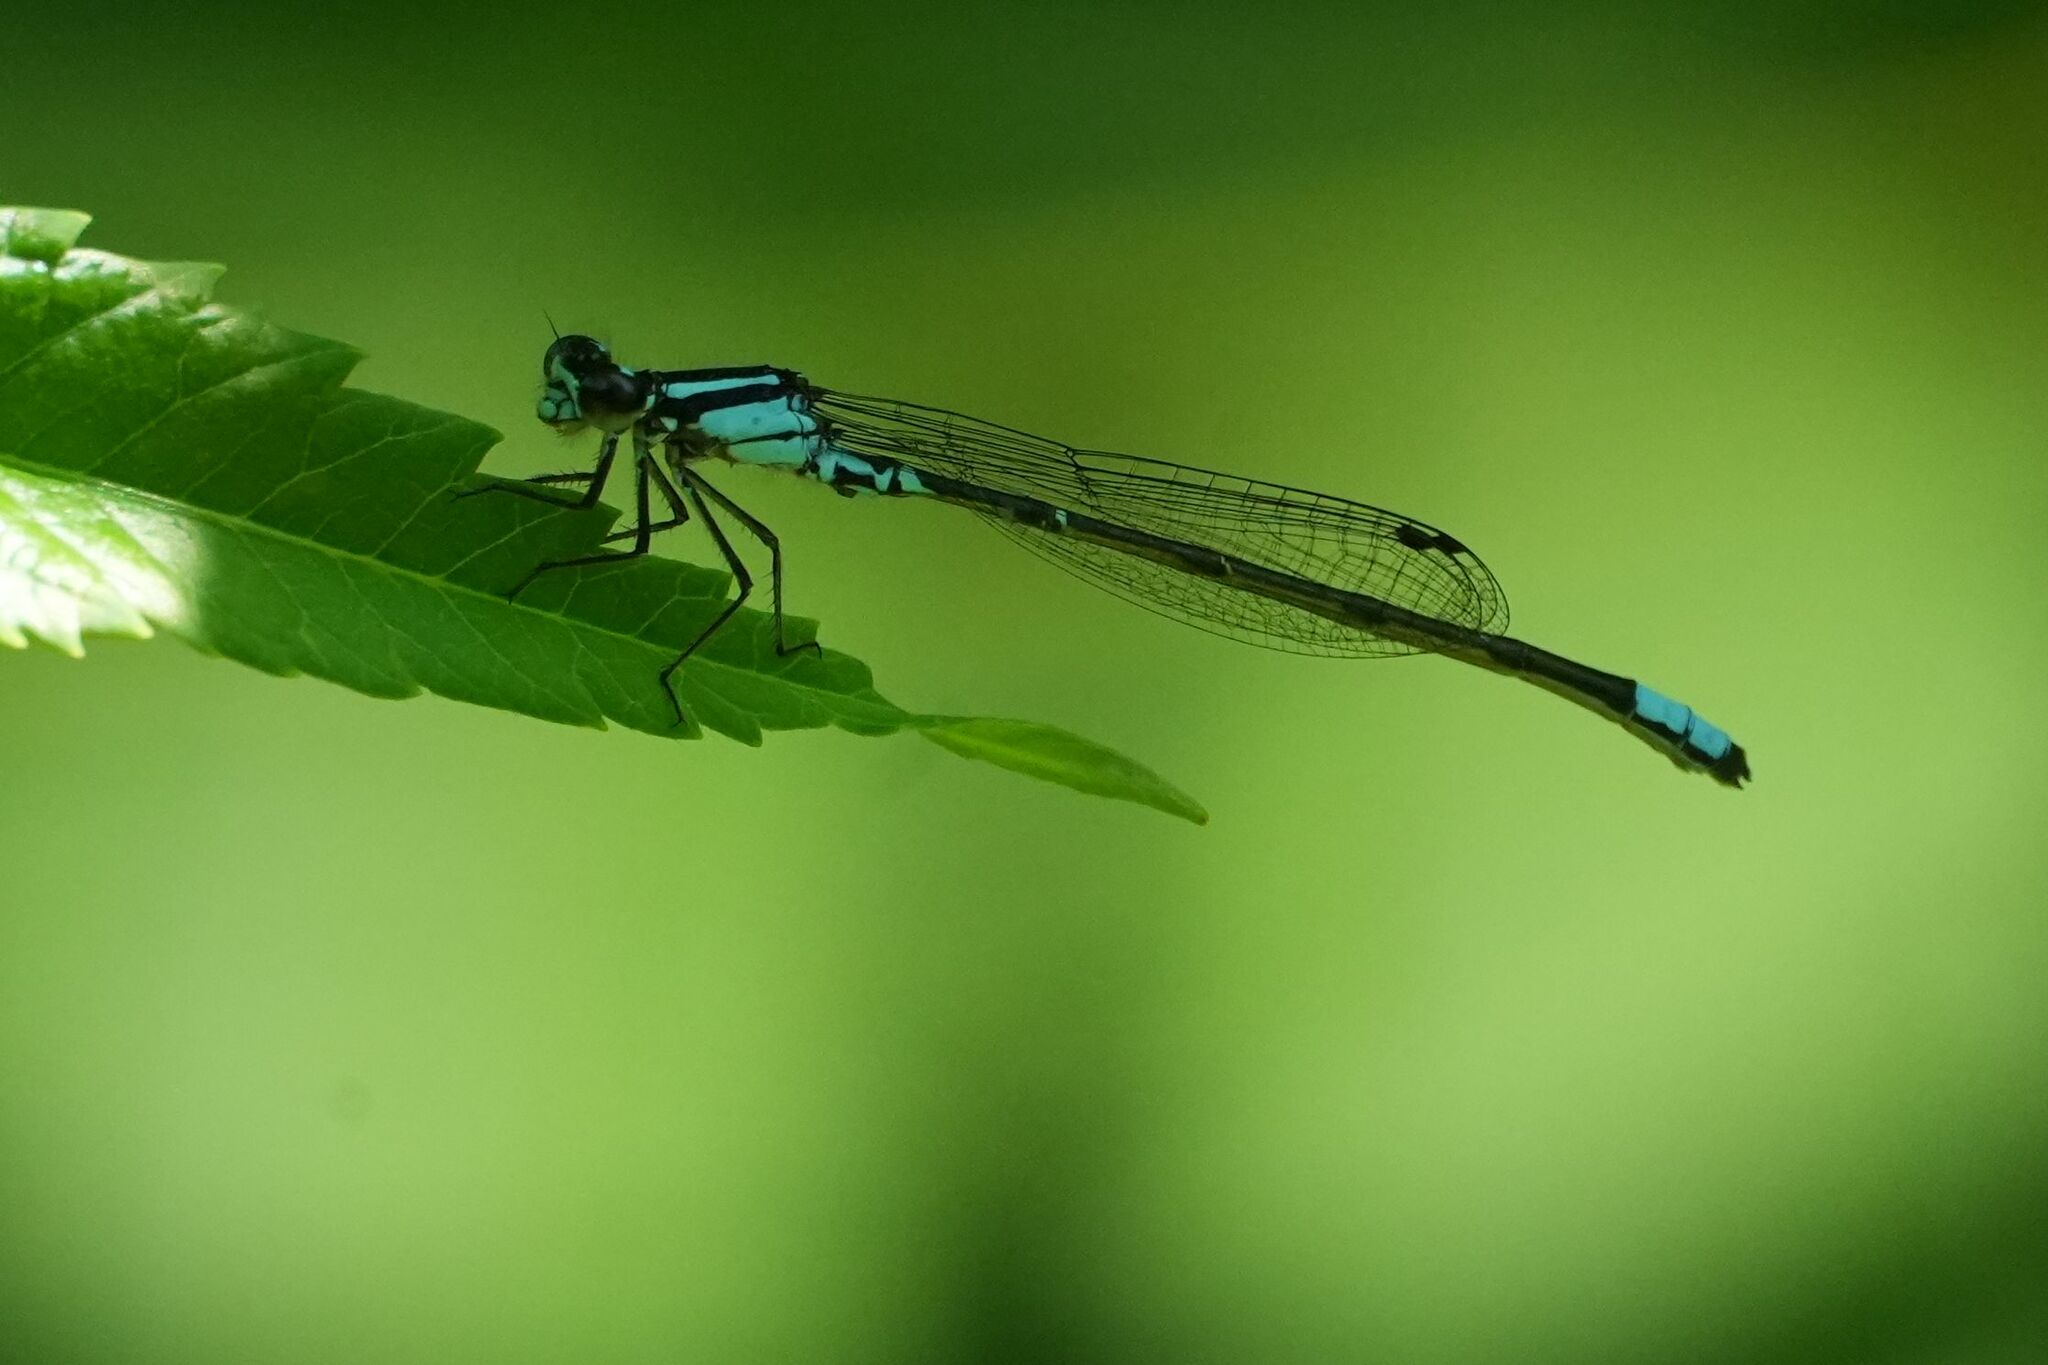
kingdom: Animalia
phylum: Arthropoda
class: Insecta
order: Odonata
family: Coenagrionidae
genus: Enallagma
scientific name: Enallagma geminatum
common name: Skimming bluet
